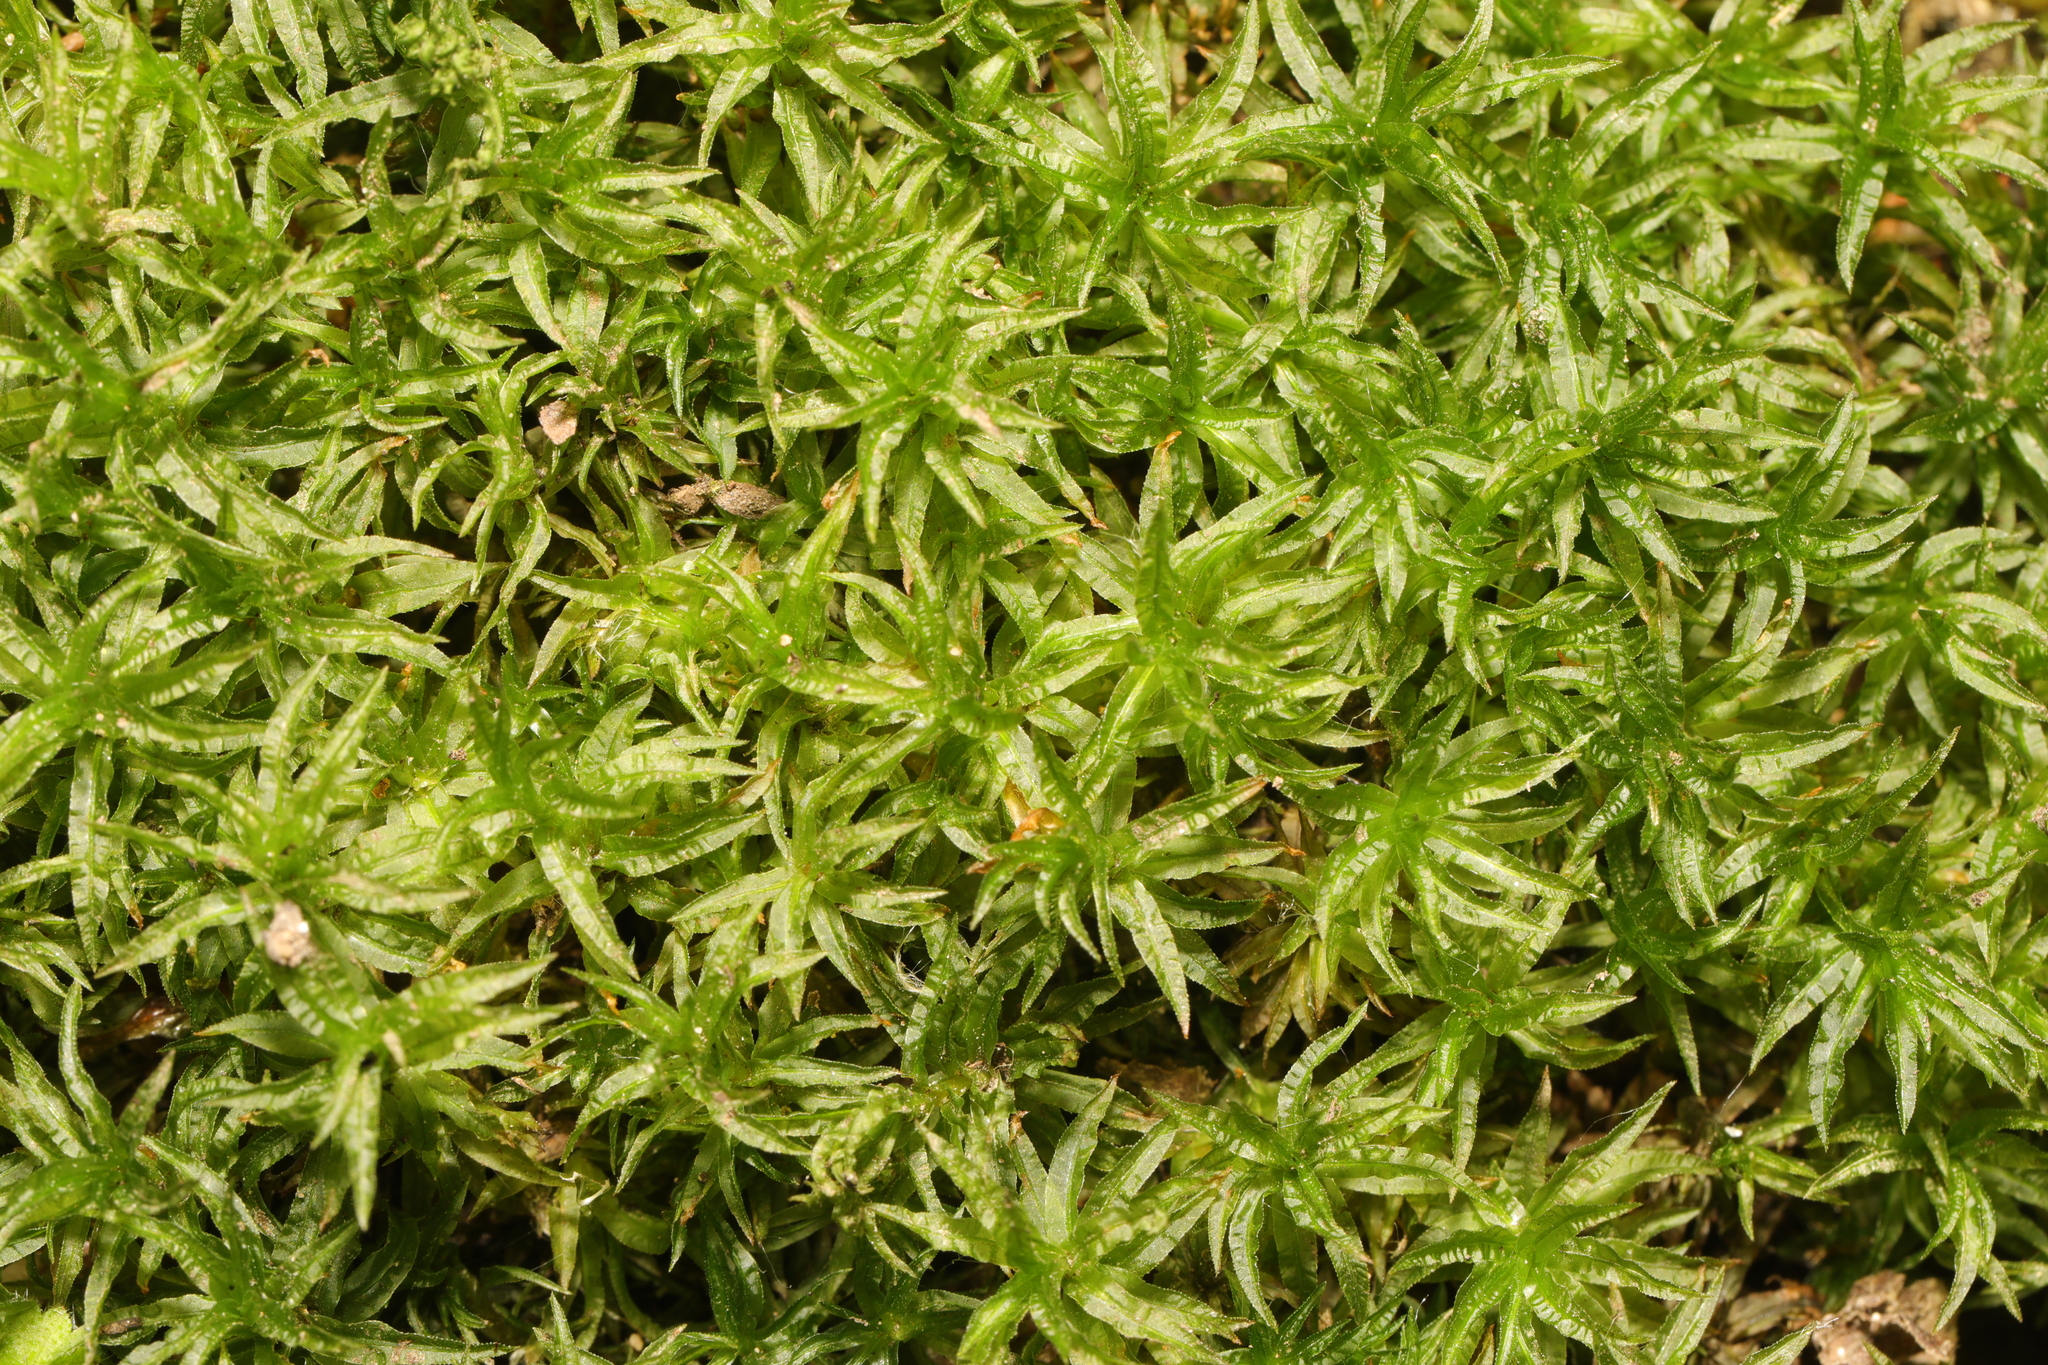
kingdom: Plantae
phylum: Bryophyta
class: Polytrichopsida
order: Polytrichales
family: Polytrichaceae
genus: Atrichum
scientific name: Atrichum undulatum
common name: Common smoothcap
